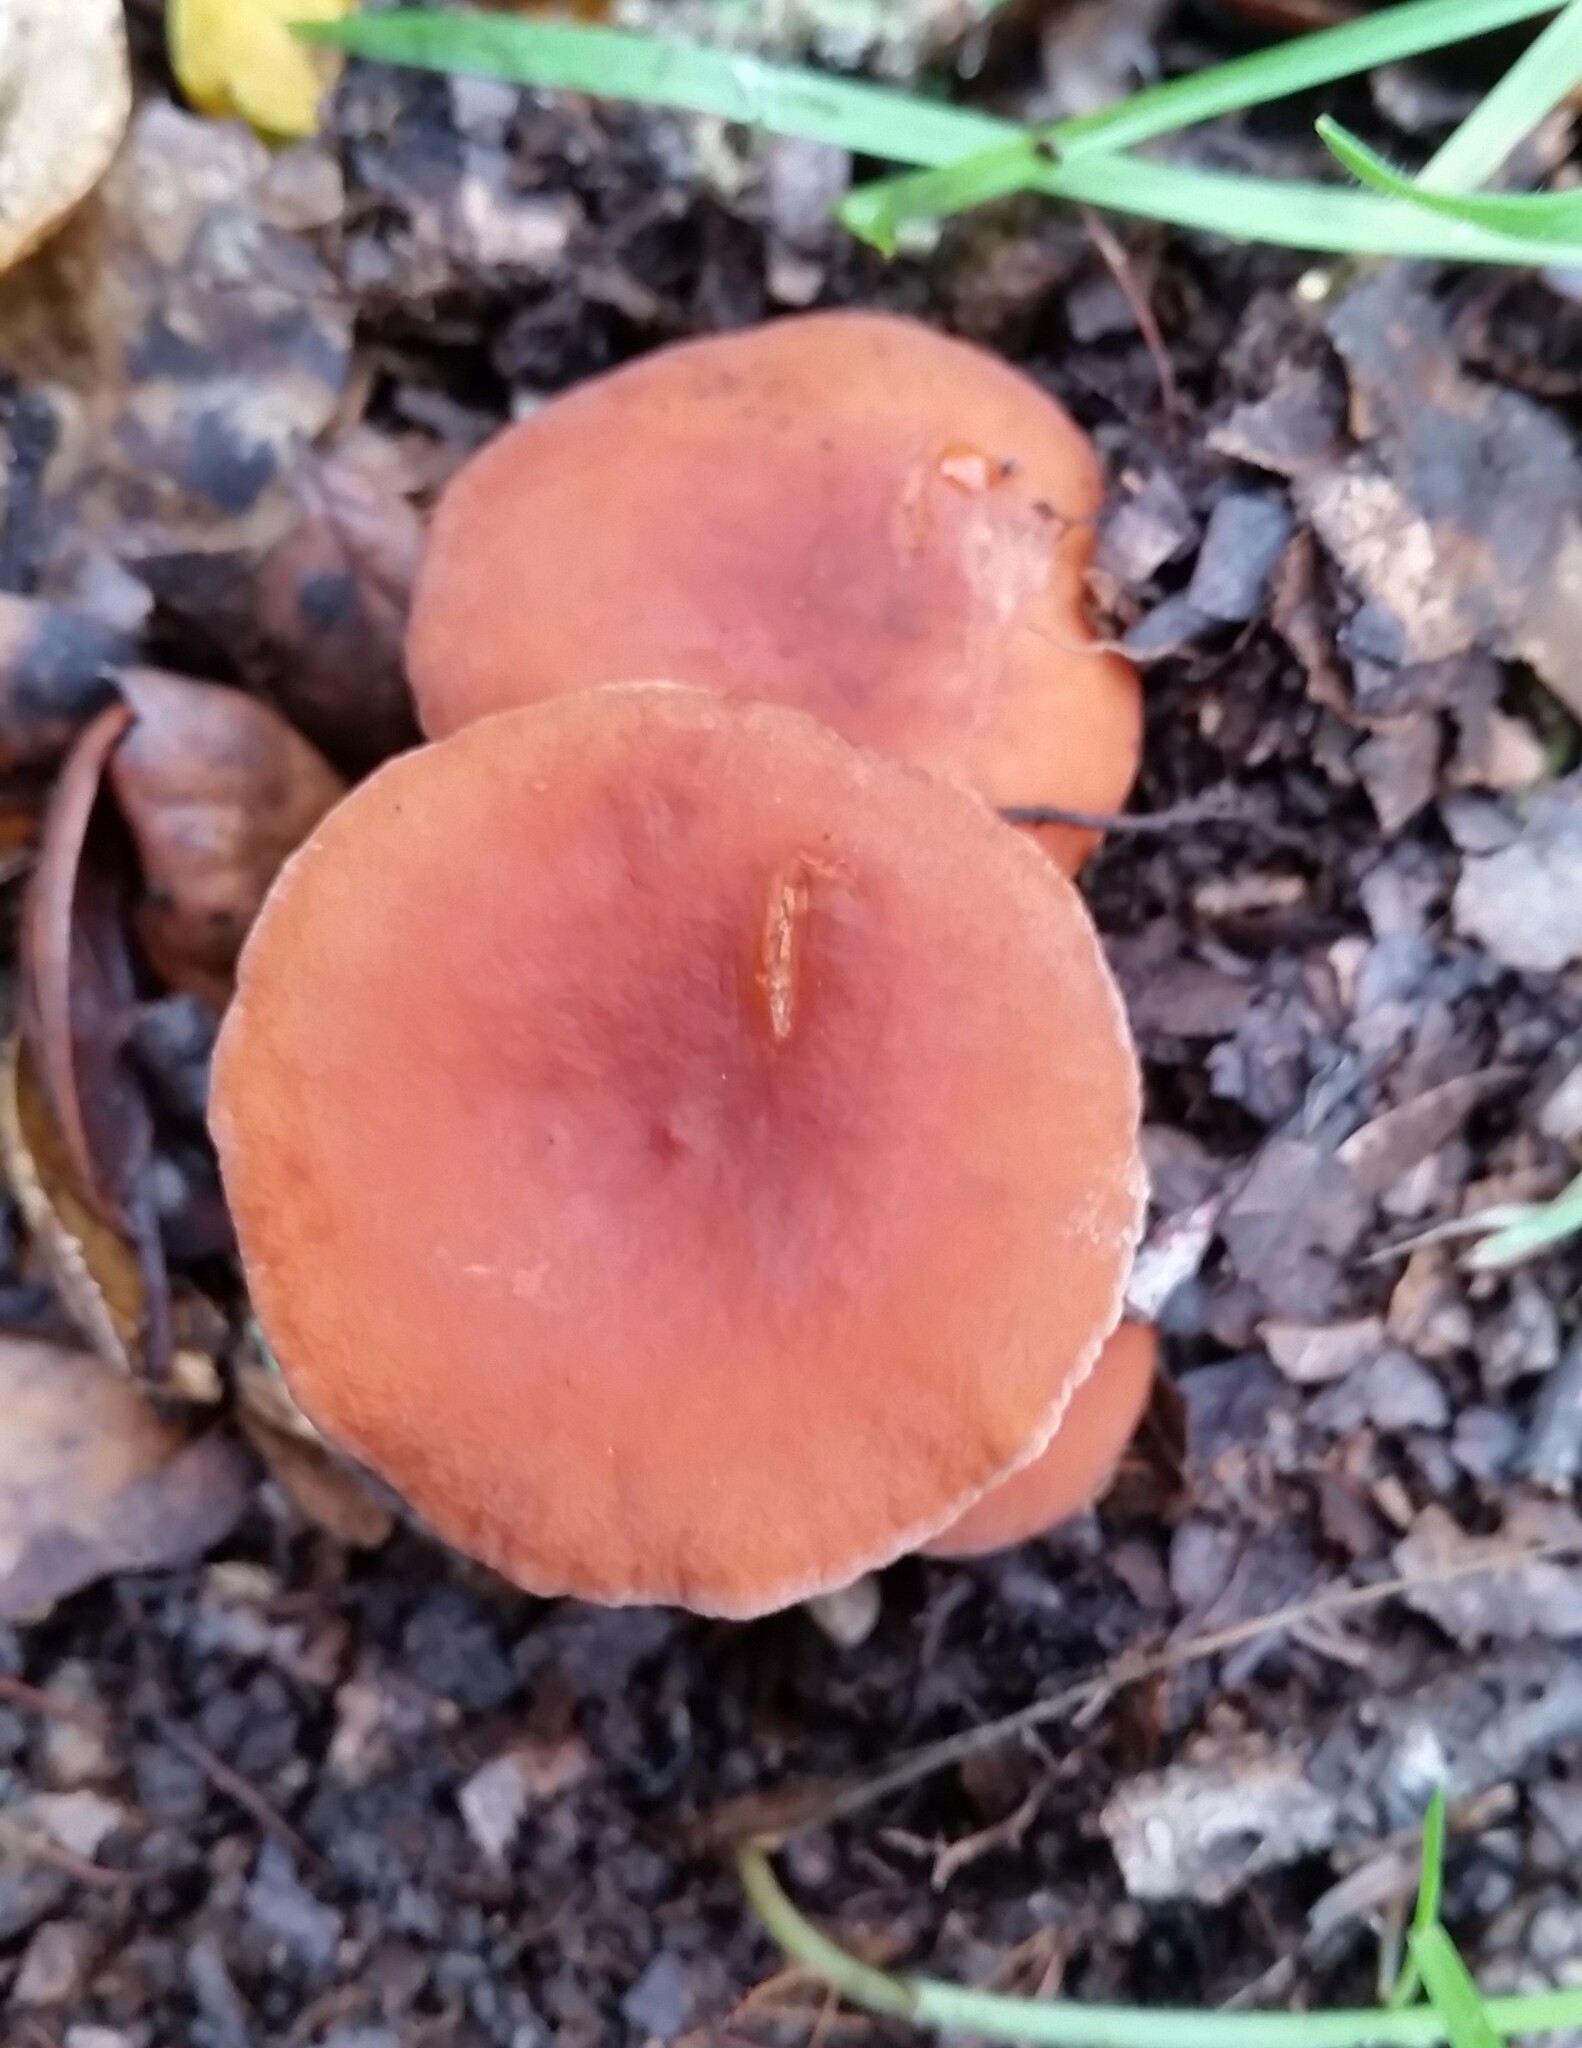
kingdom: Fungi
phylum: Basidiomycota
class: Agaricomycetes
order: Russulales
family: Russulaceae
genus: Lactarius
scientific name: Lactarius rubidus
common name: Candy cap
